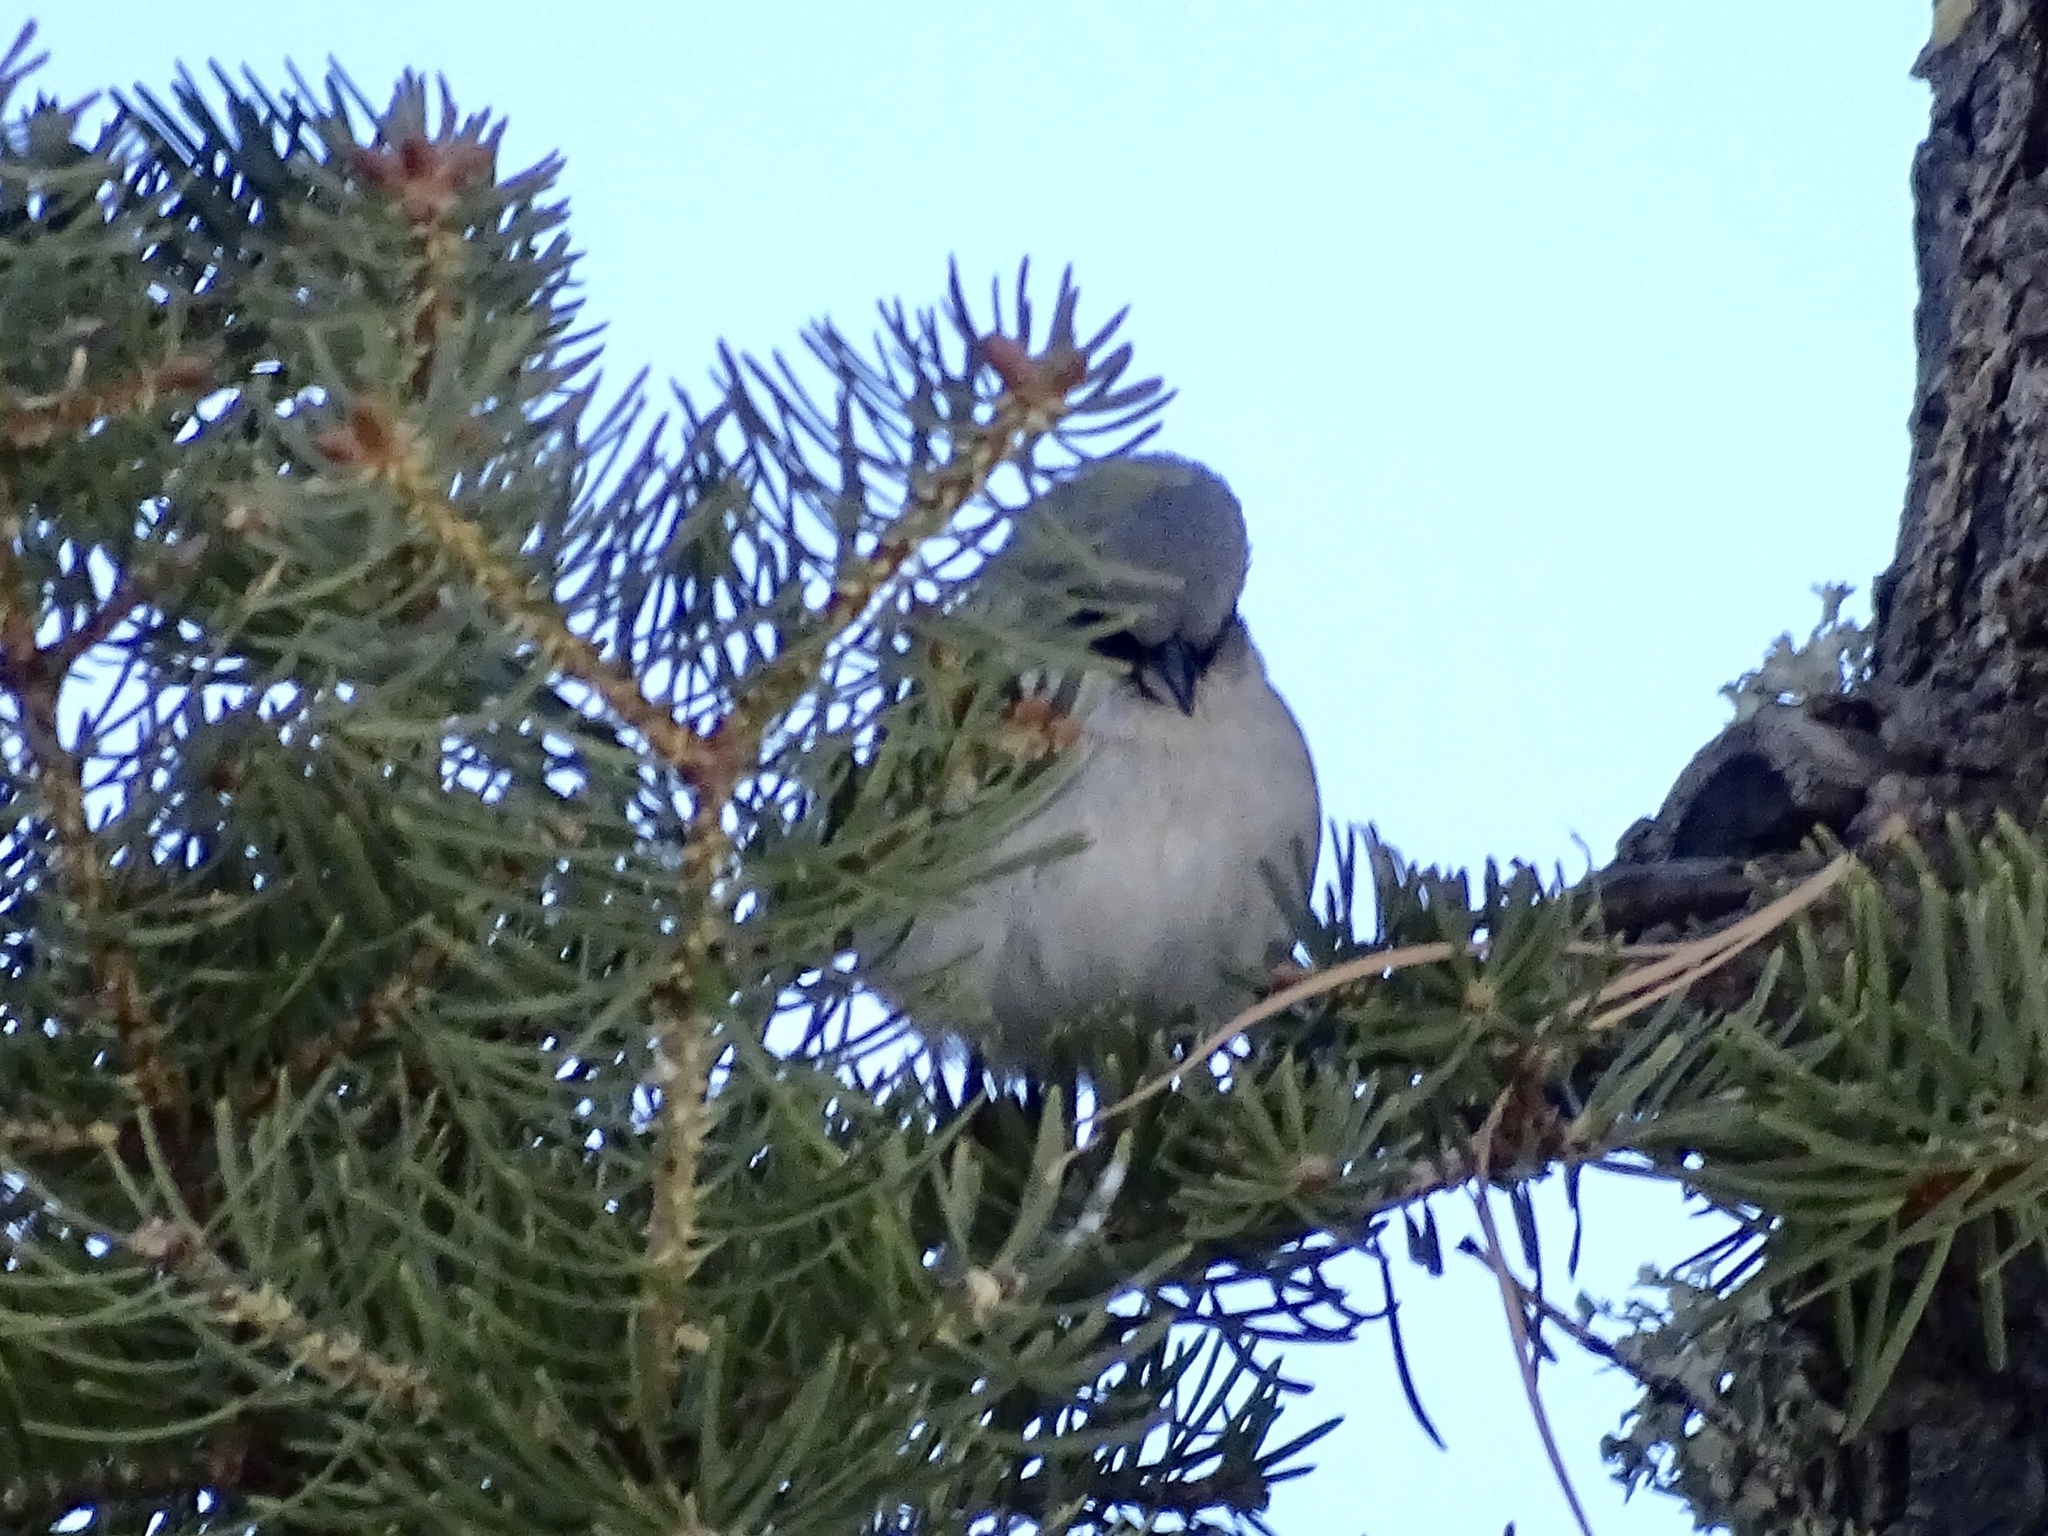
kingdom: Animalia
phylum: Chordata
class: Aves
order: Passeriformes
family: Passerellidae
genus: Junco
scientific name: Junco hyemalis
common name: Dark-eyed junco
